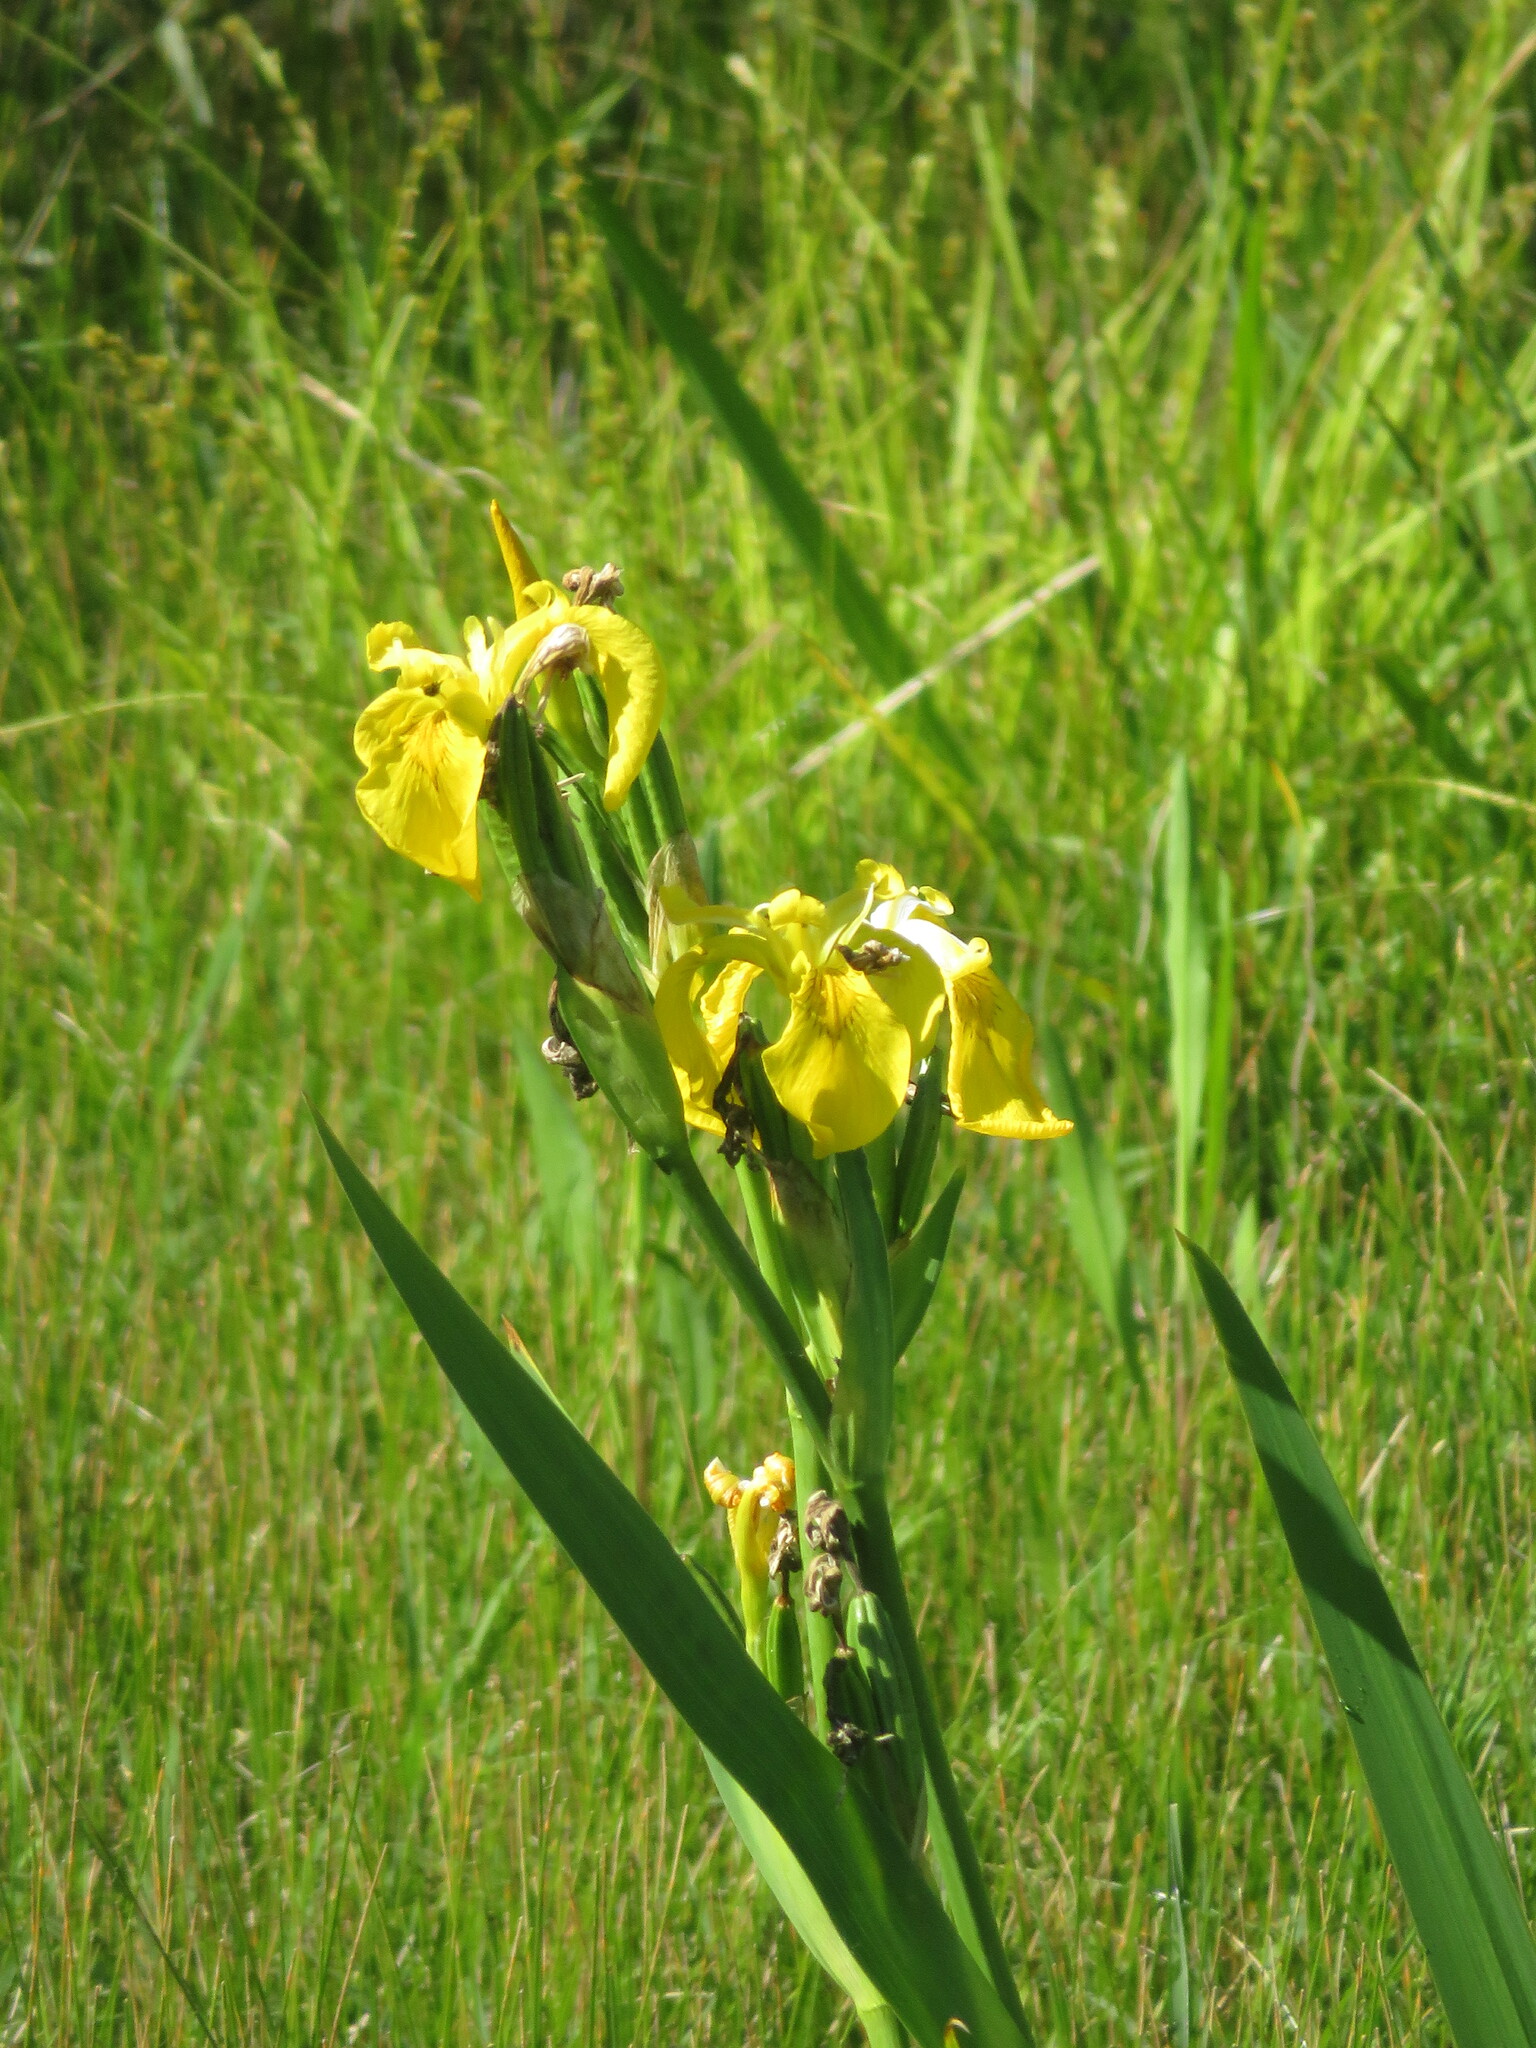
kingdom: Plantae
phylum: Tracheophyta
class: Liliopsida
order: Asparagales
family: Iridaceae
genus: Iris
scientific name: Iris pseudacorus
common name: Yellow flag
